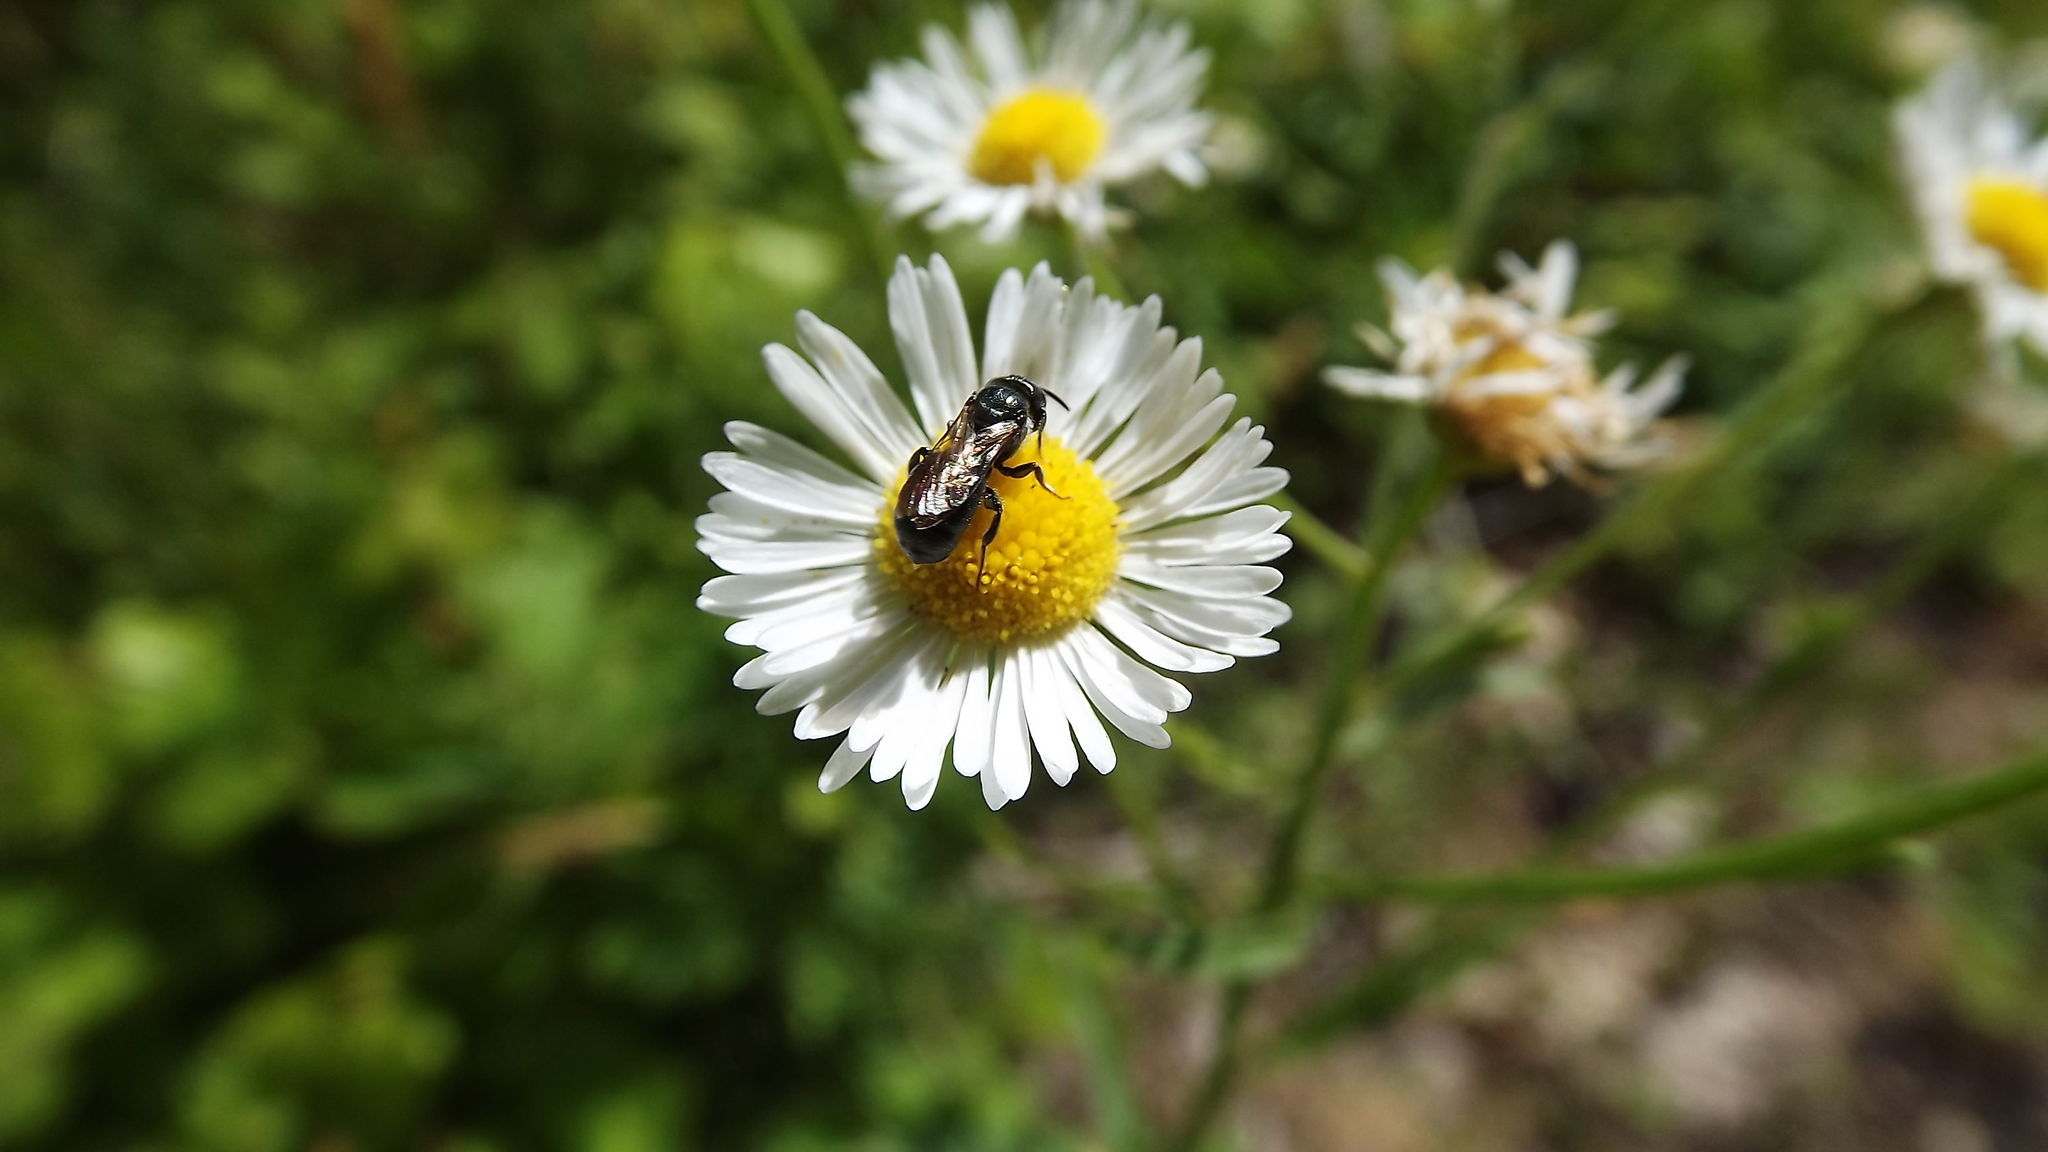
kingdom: Animalia
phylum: Arthropoda
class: Insecta
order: Hymenoptera
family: Apidae
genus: Zadontomerus
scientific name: Zadontomerus
